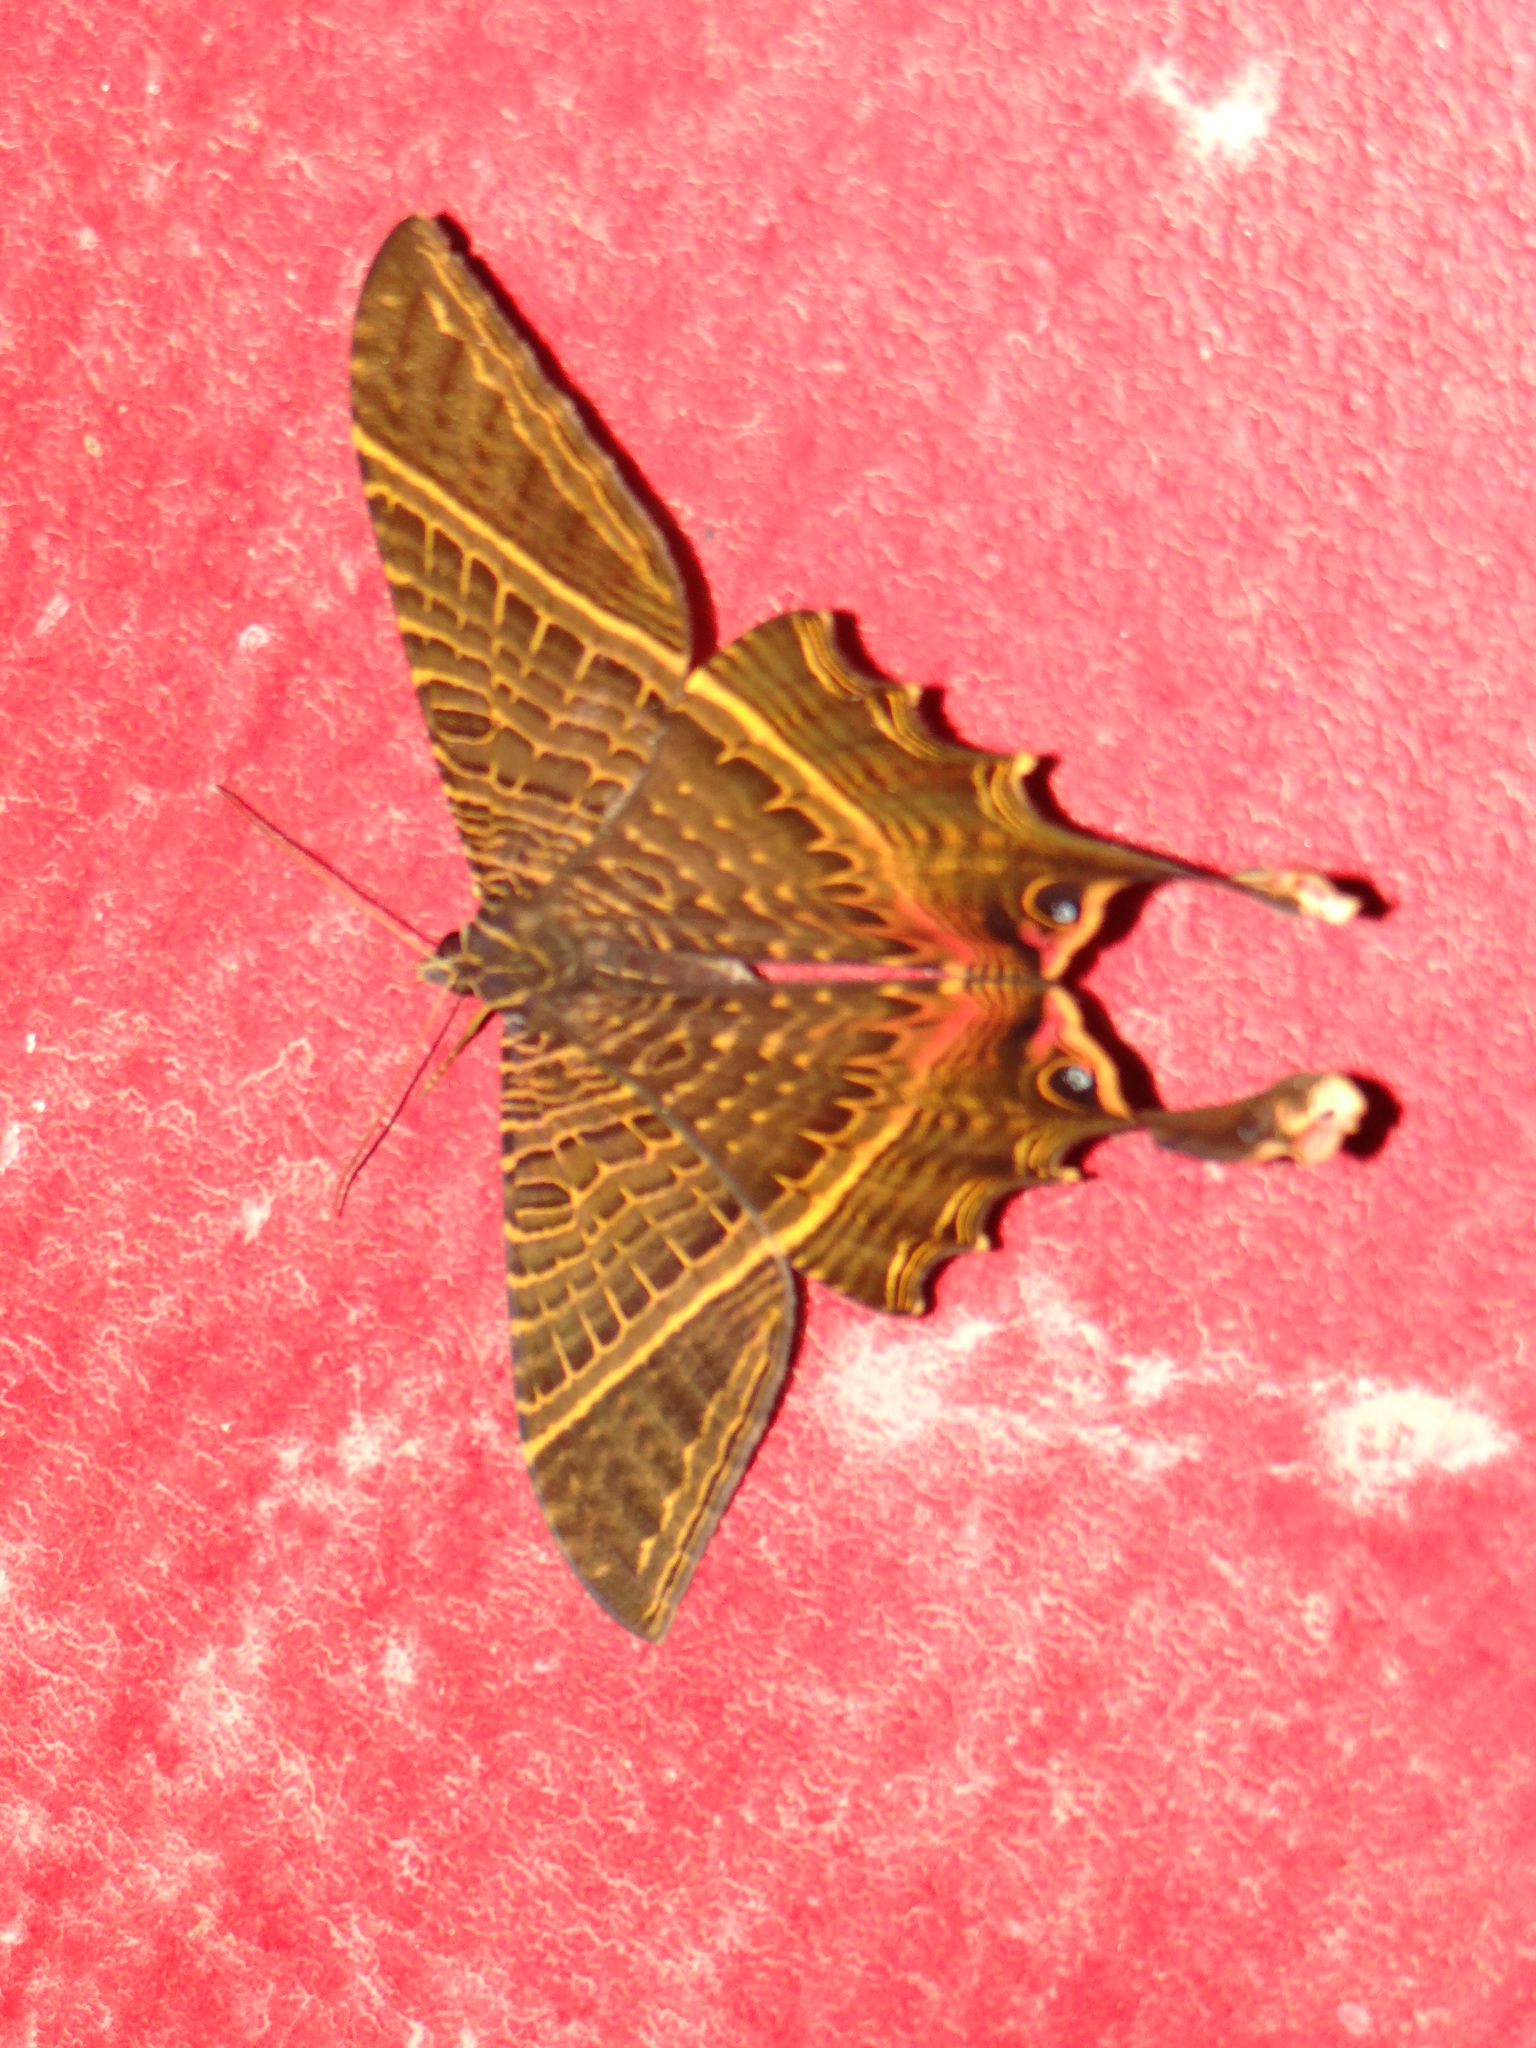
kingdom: Animalia
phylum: Arthropoda
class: Insecta
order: Lepidoptera
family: Sematuridae
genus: Nothus
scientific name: Nothus empedocles
